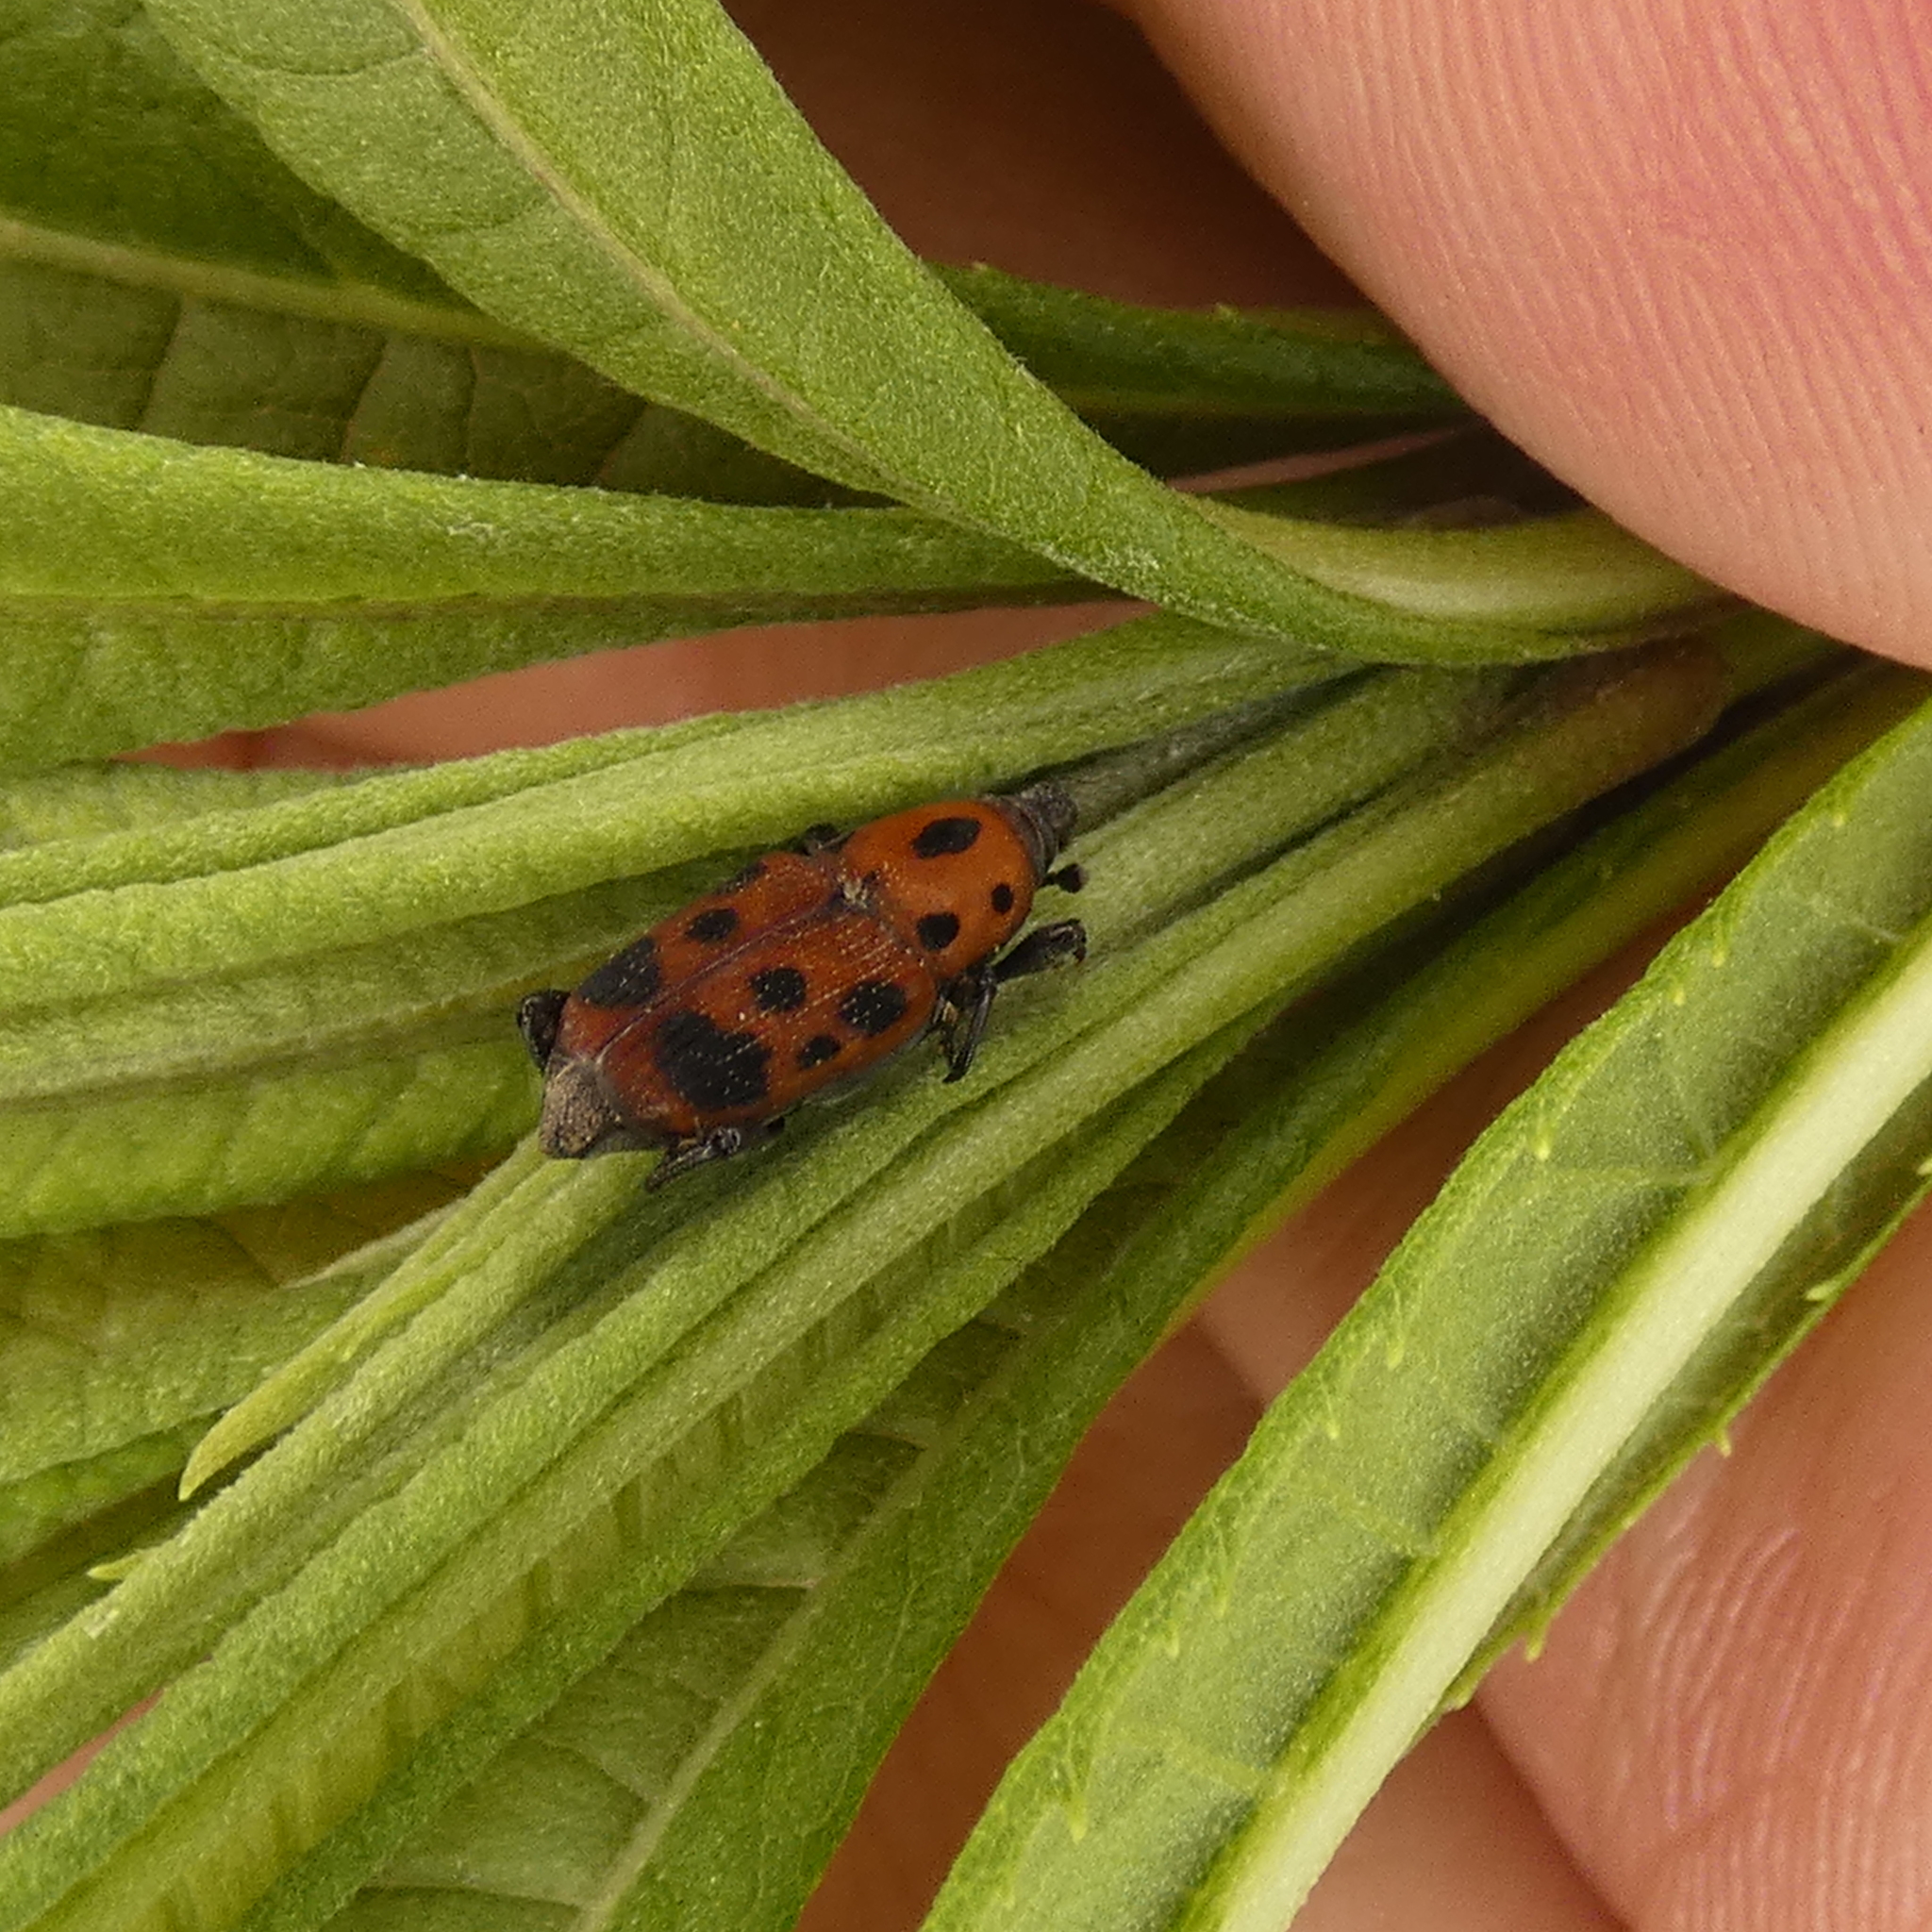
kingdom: Animalia
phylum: Arthropoda
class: Insecta
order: Coleoptera
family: Dryophthoridae
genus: Rhodobaenus
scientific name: Rhodobaenus tredecimpunctatus
